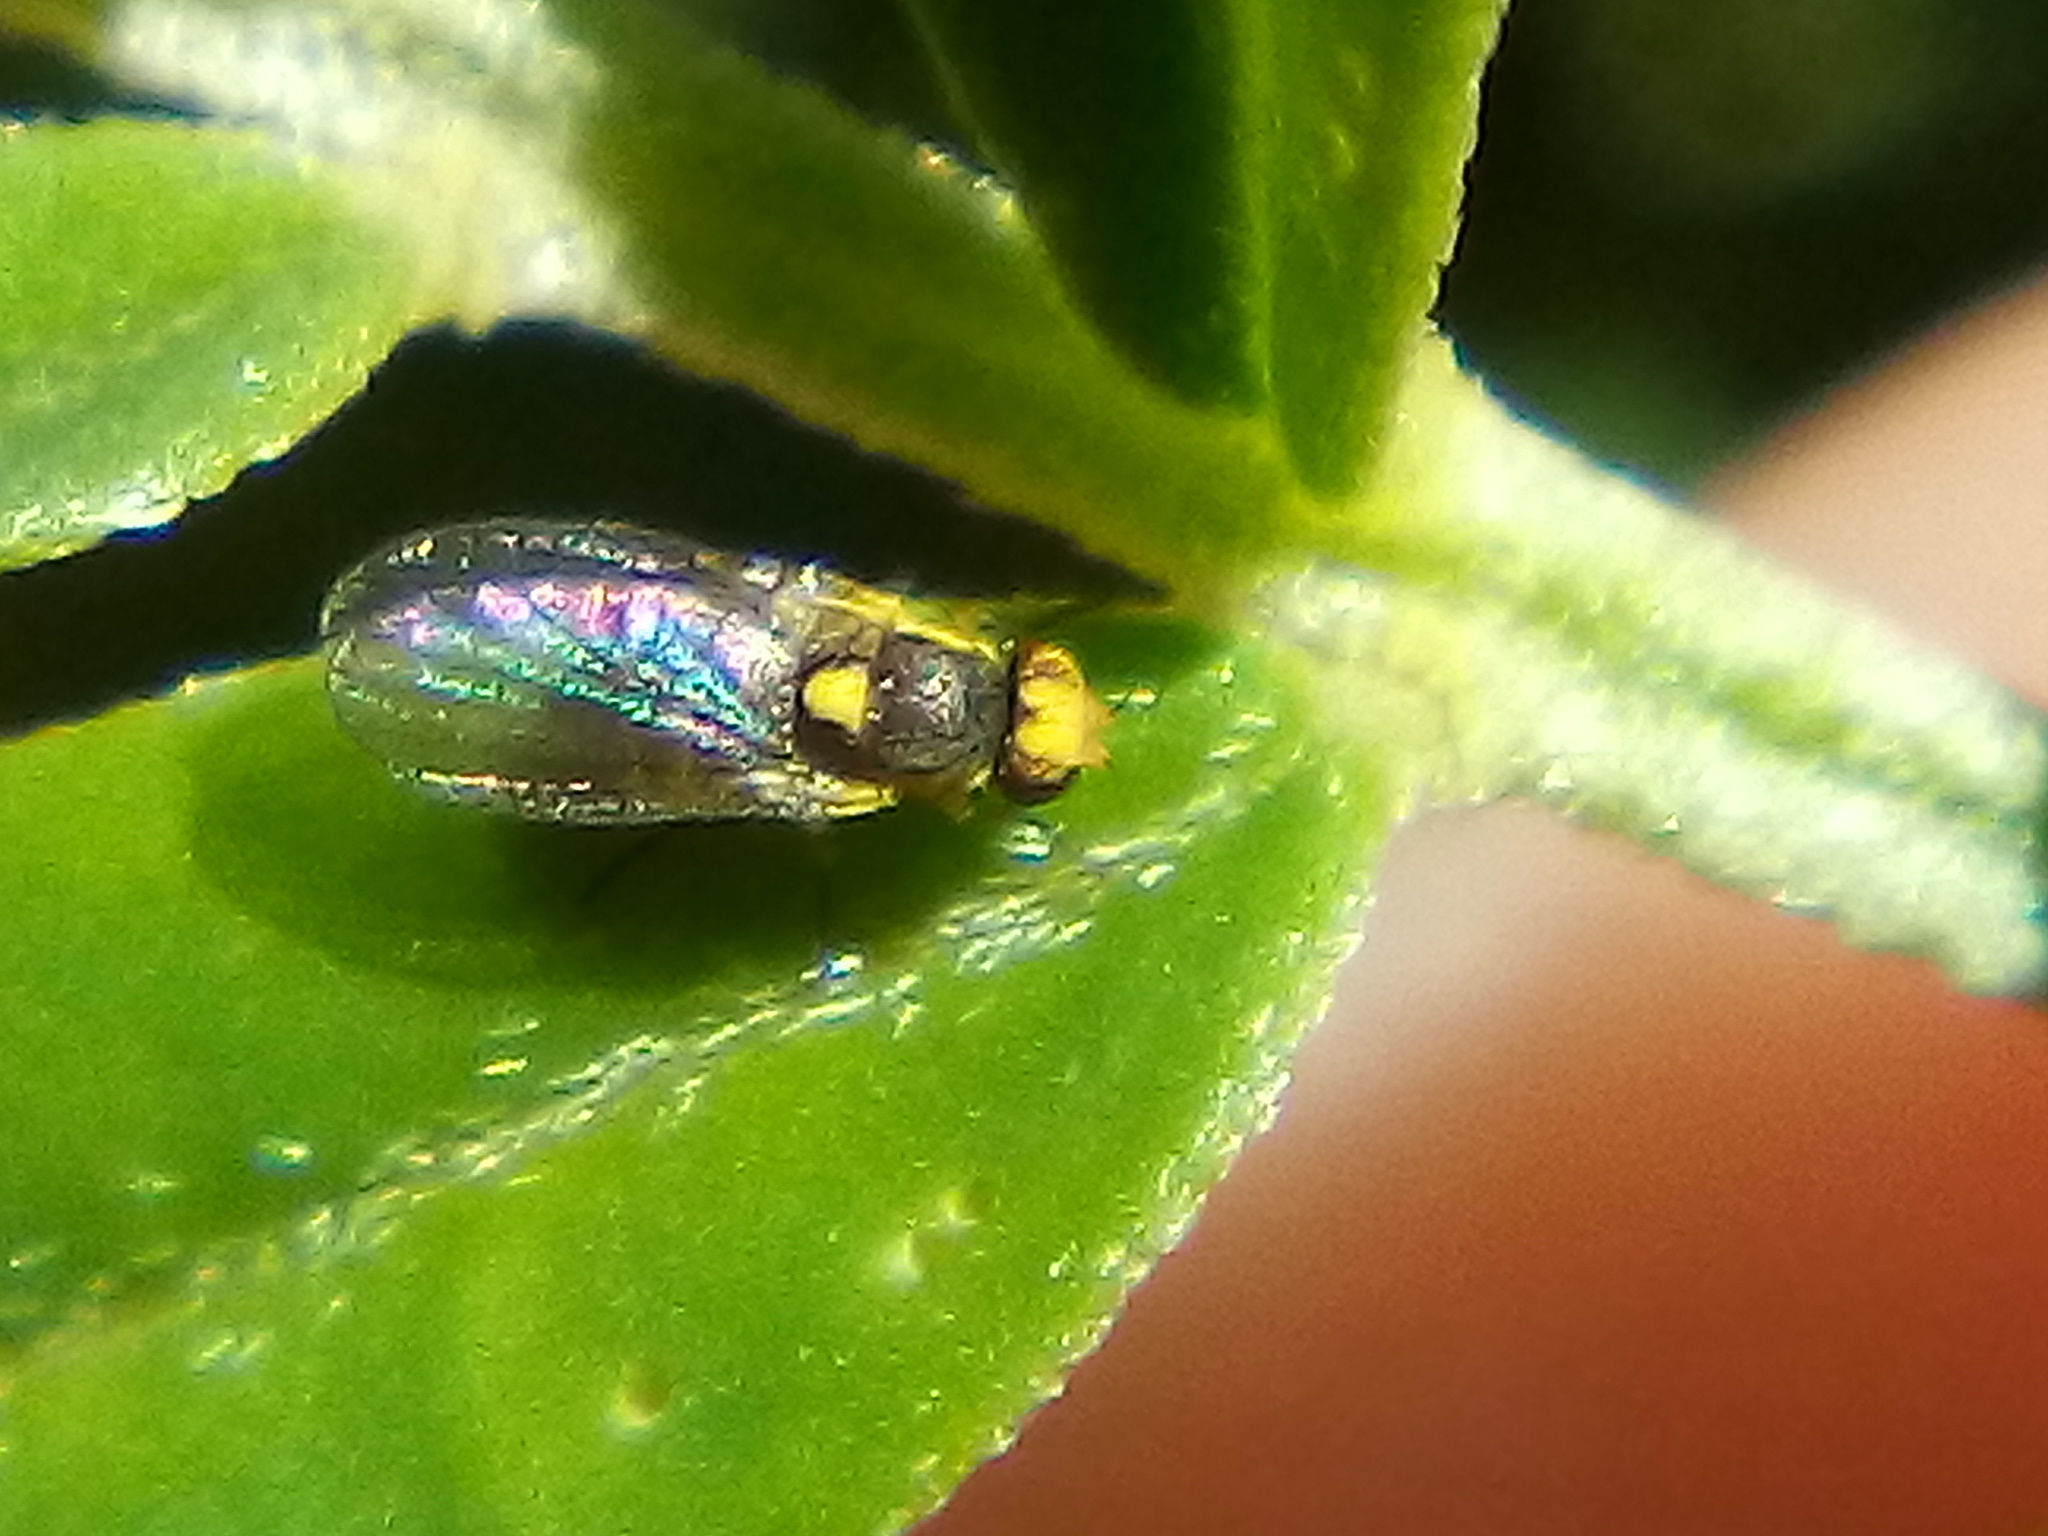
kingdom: Animalia
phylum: Arthropoda
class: Insecta
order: Diptera
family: Agromyzidae
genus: Liriomyza
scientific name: Liriomyza clianthi
